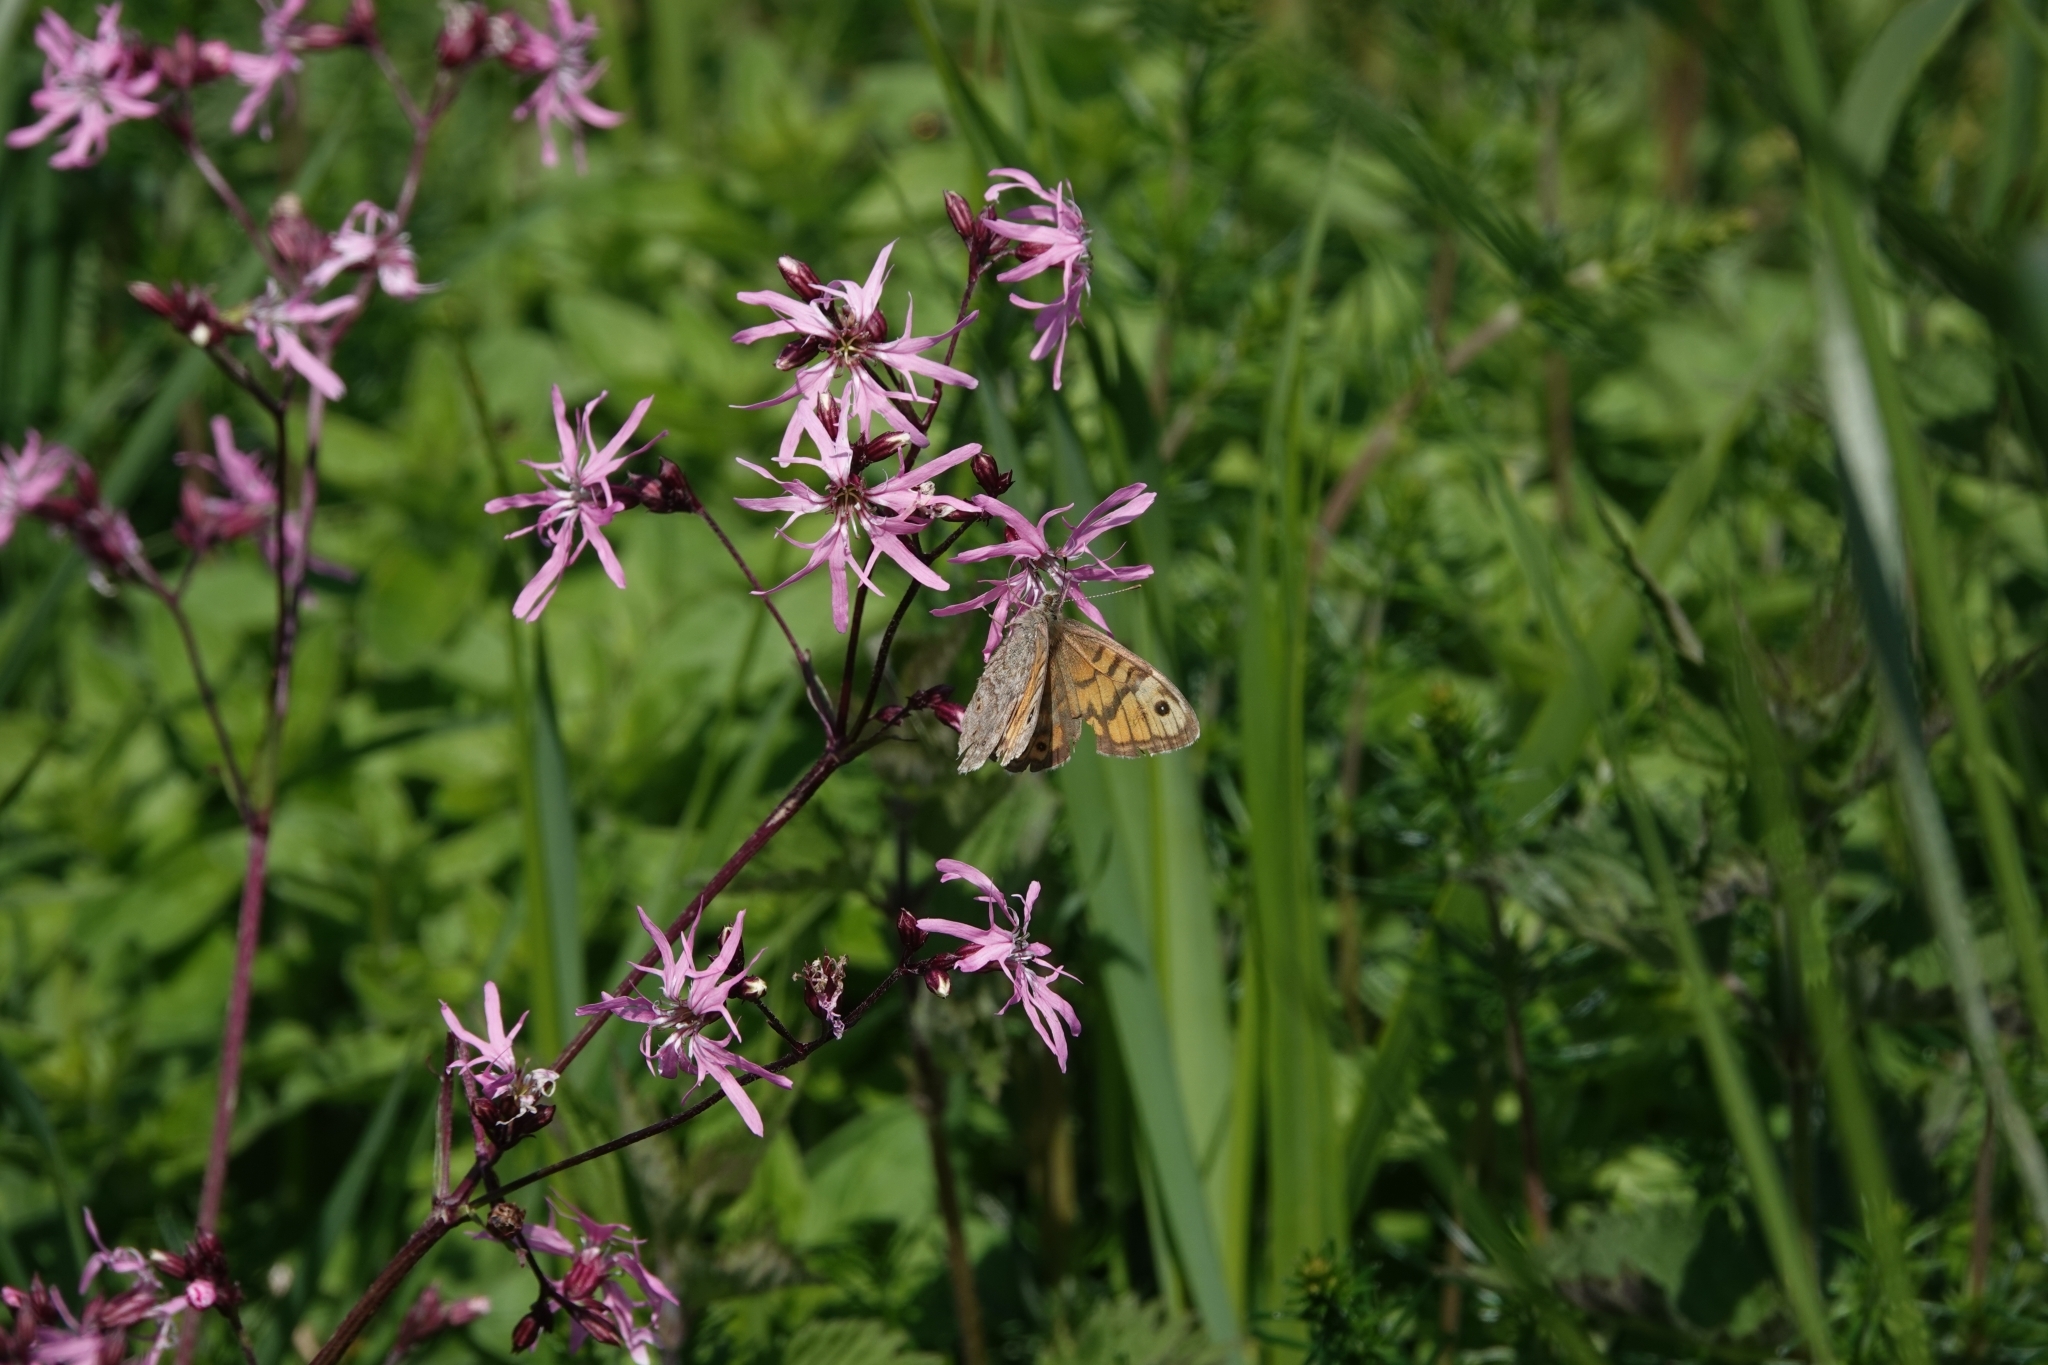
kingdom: Animalia
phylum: Arthropoda
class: Insecta
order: Lepidoptera
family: Nymphalidae
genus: Pararge
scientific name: Pararge Lasiommata megera
